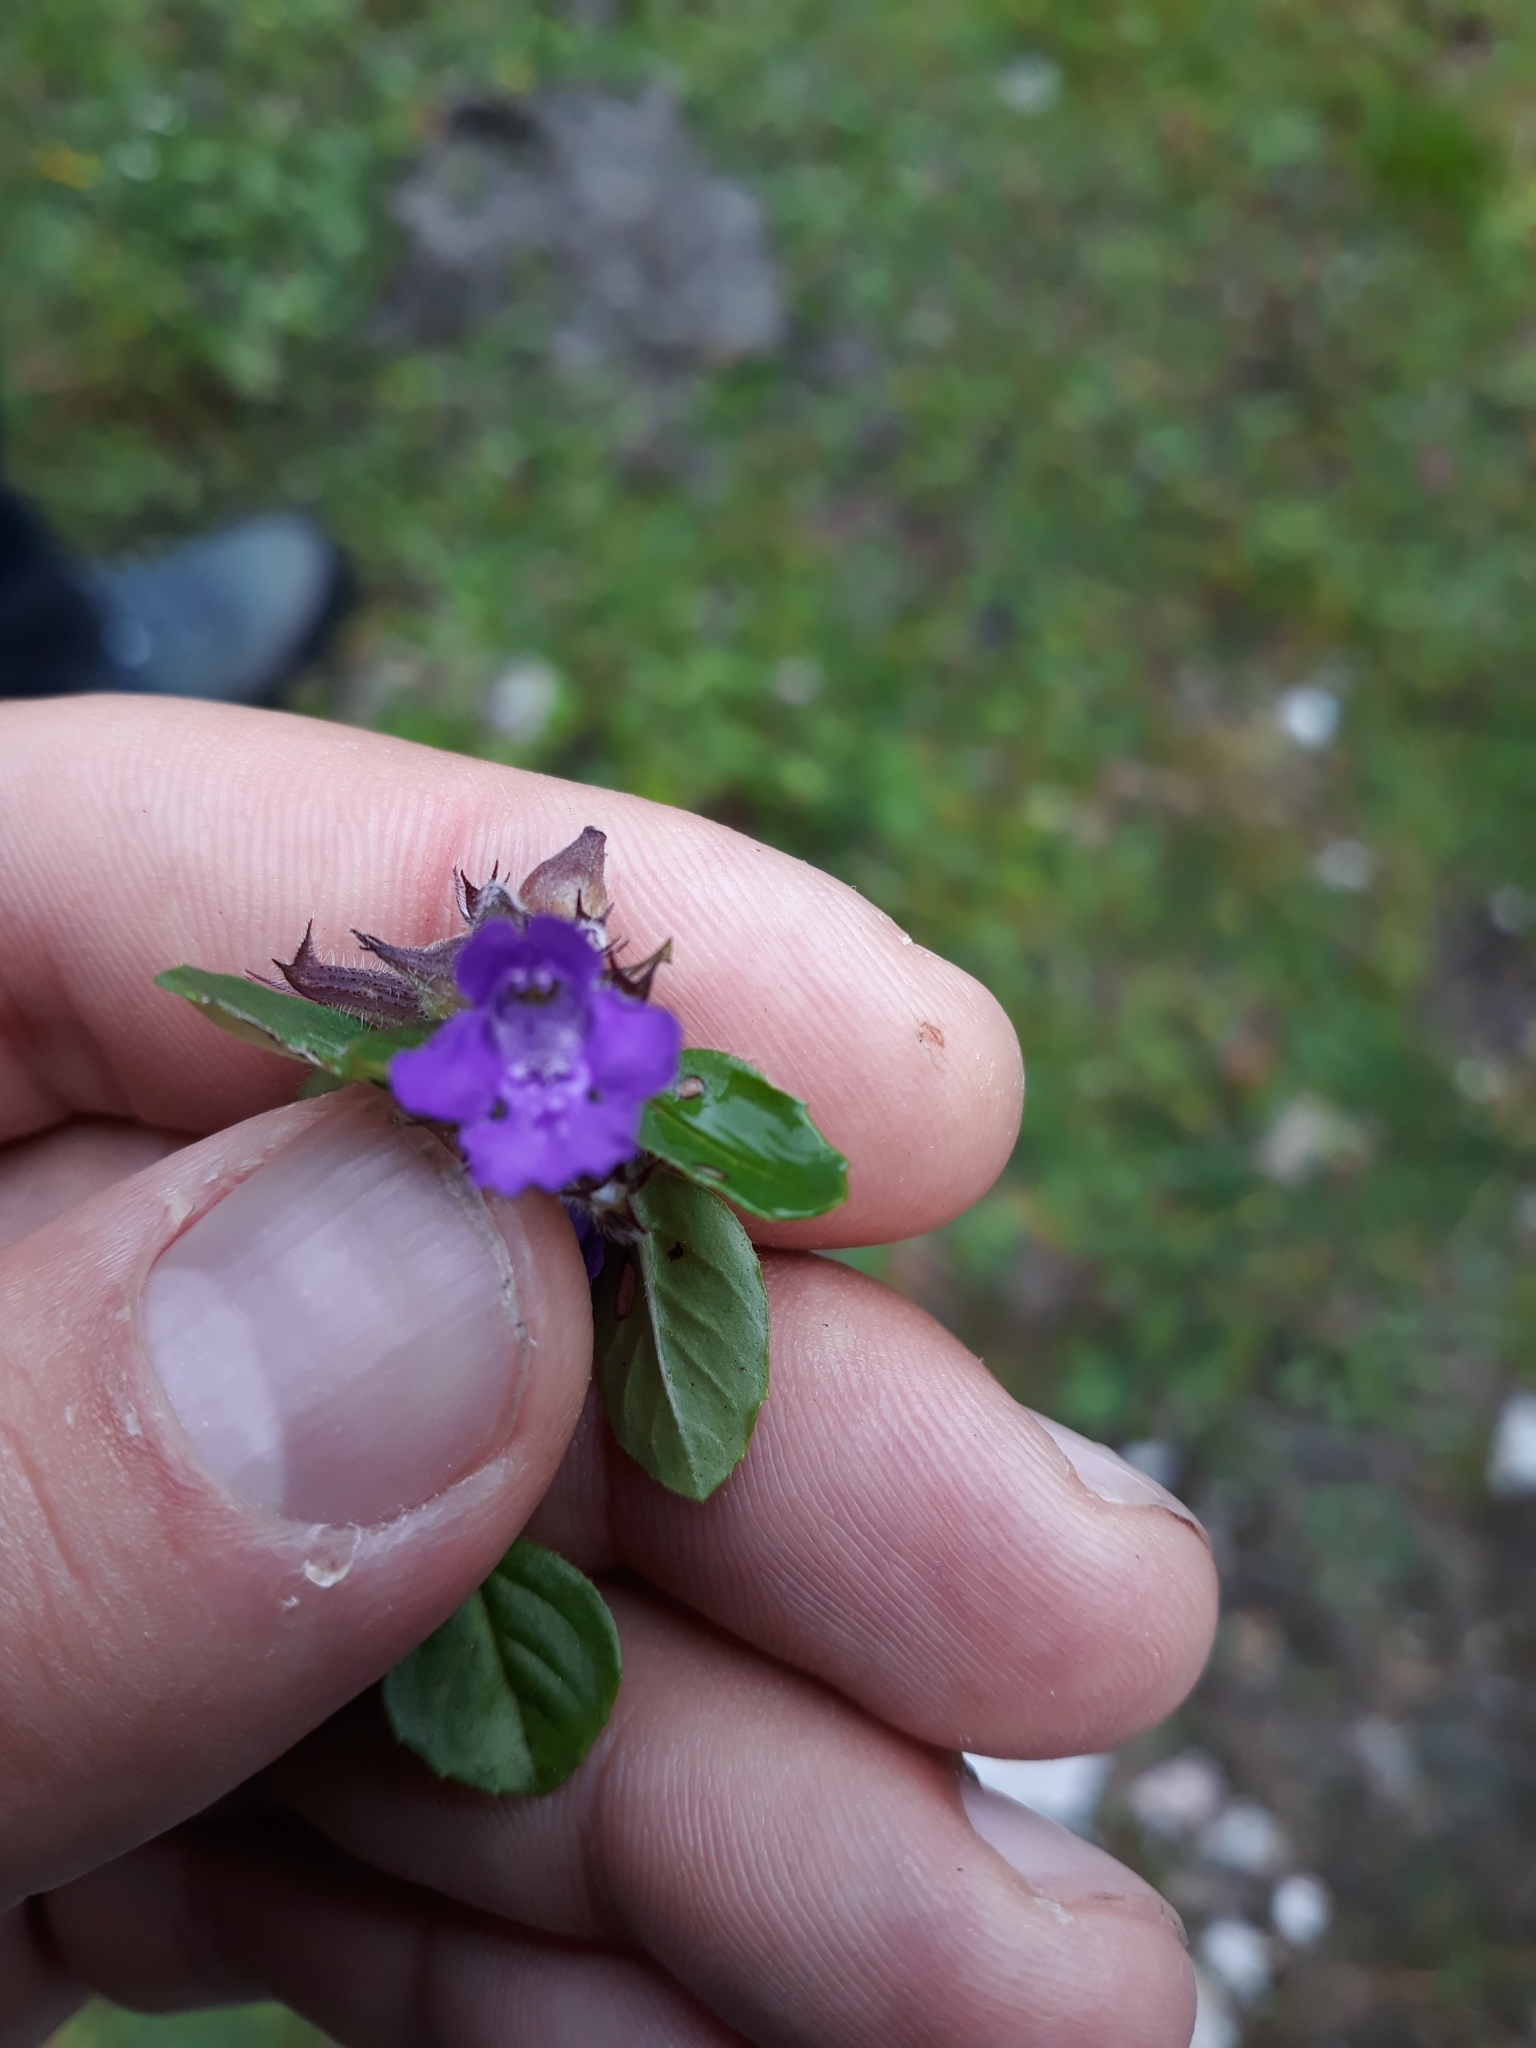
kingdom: Plantae
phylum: Tracheophyta
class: Magnoliopsida
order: Lamiales
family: Lamiaceae
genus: Clinopodium
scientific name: Clinopodium alpinum
